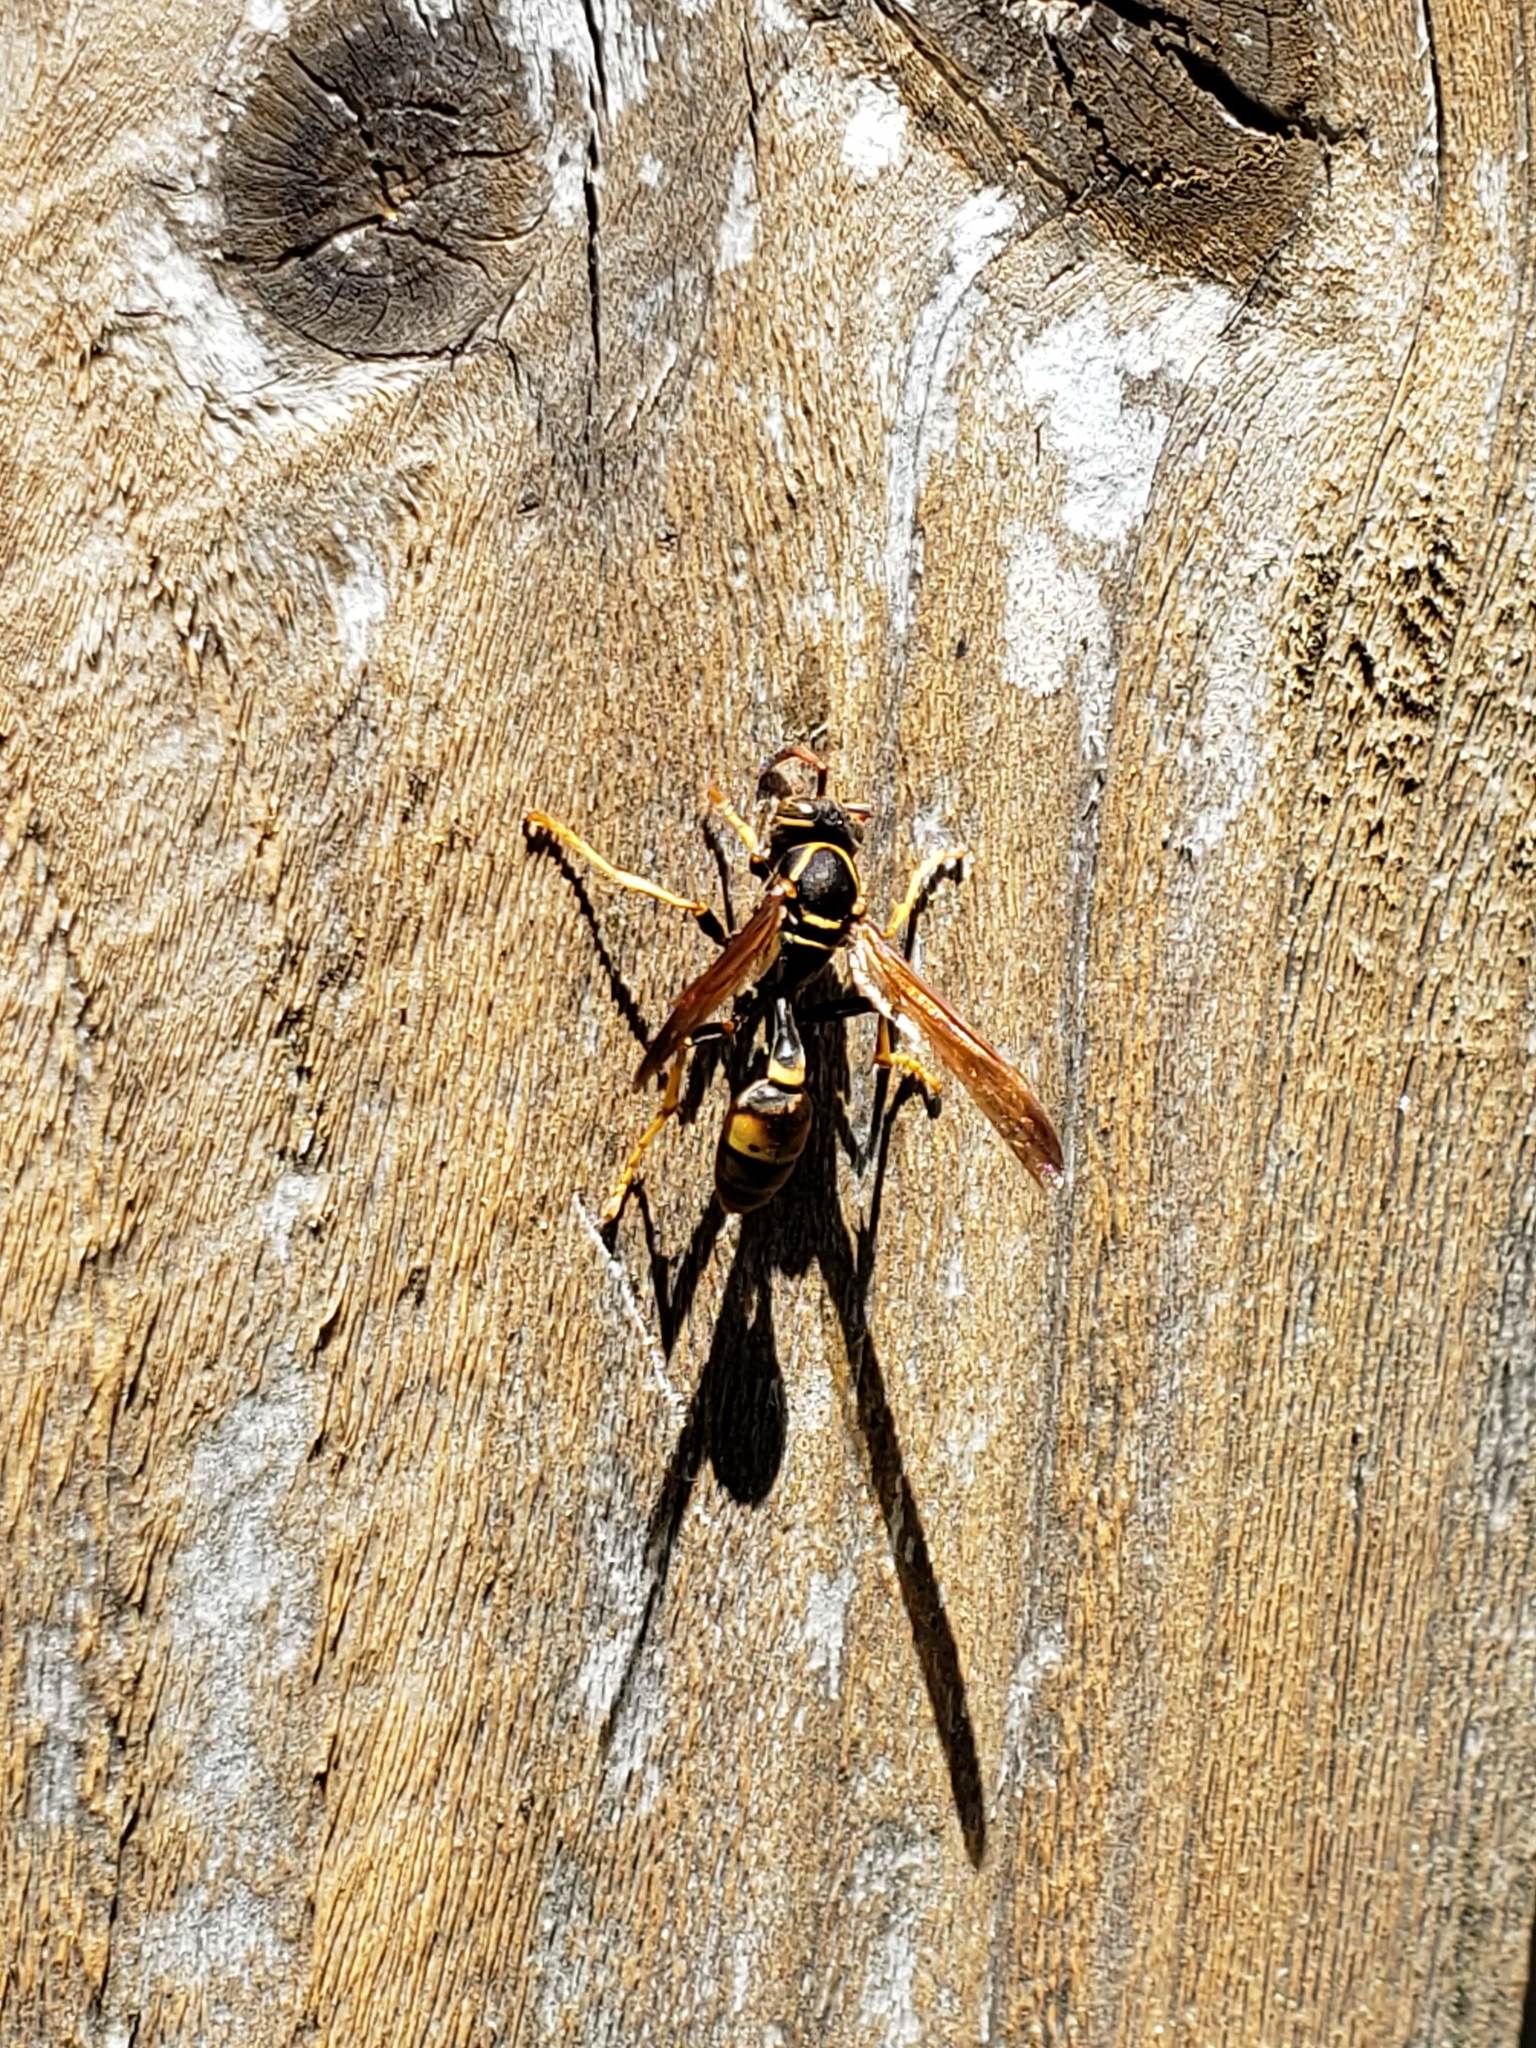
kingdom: Animalia
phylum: Arthropoda
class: Insecta
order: Hymenoptera
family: Vespidae
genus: Mischocyttarus
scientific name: Mischocyttarus flavitarsis
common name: Wasp
